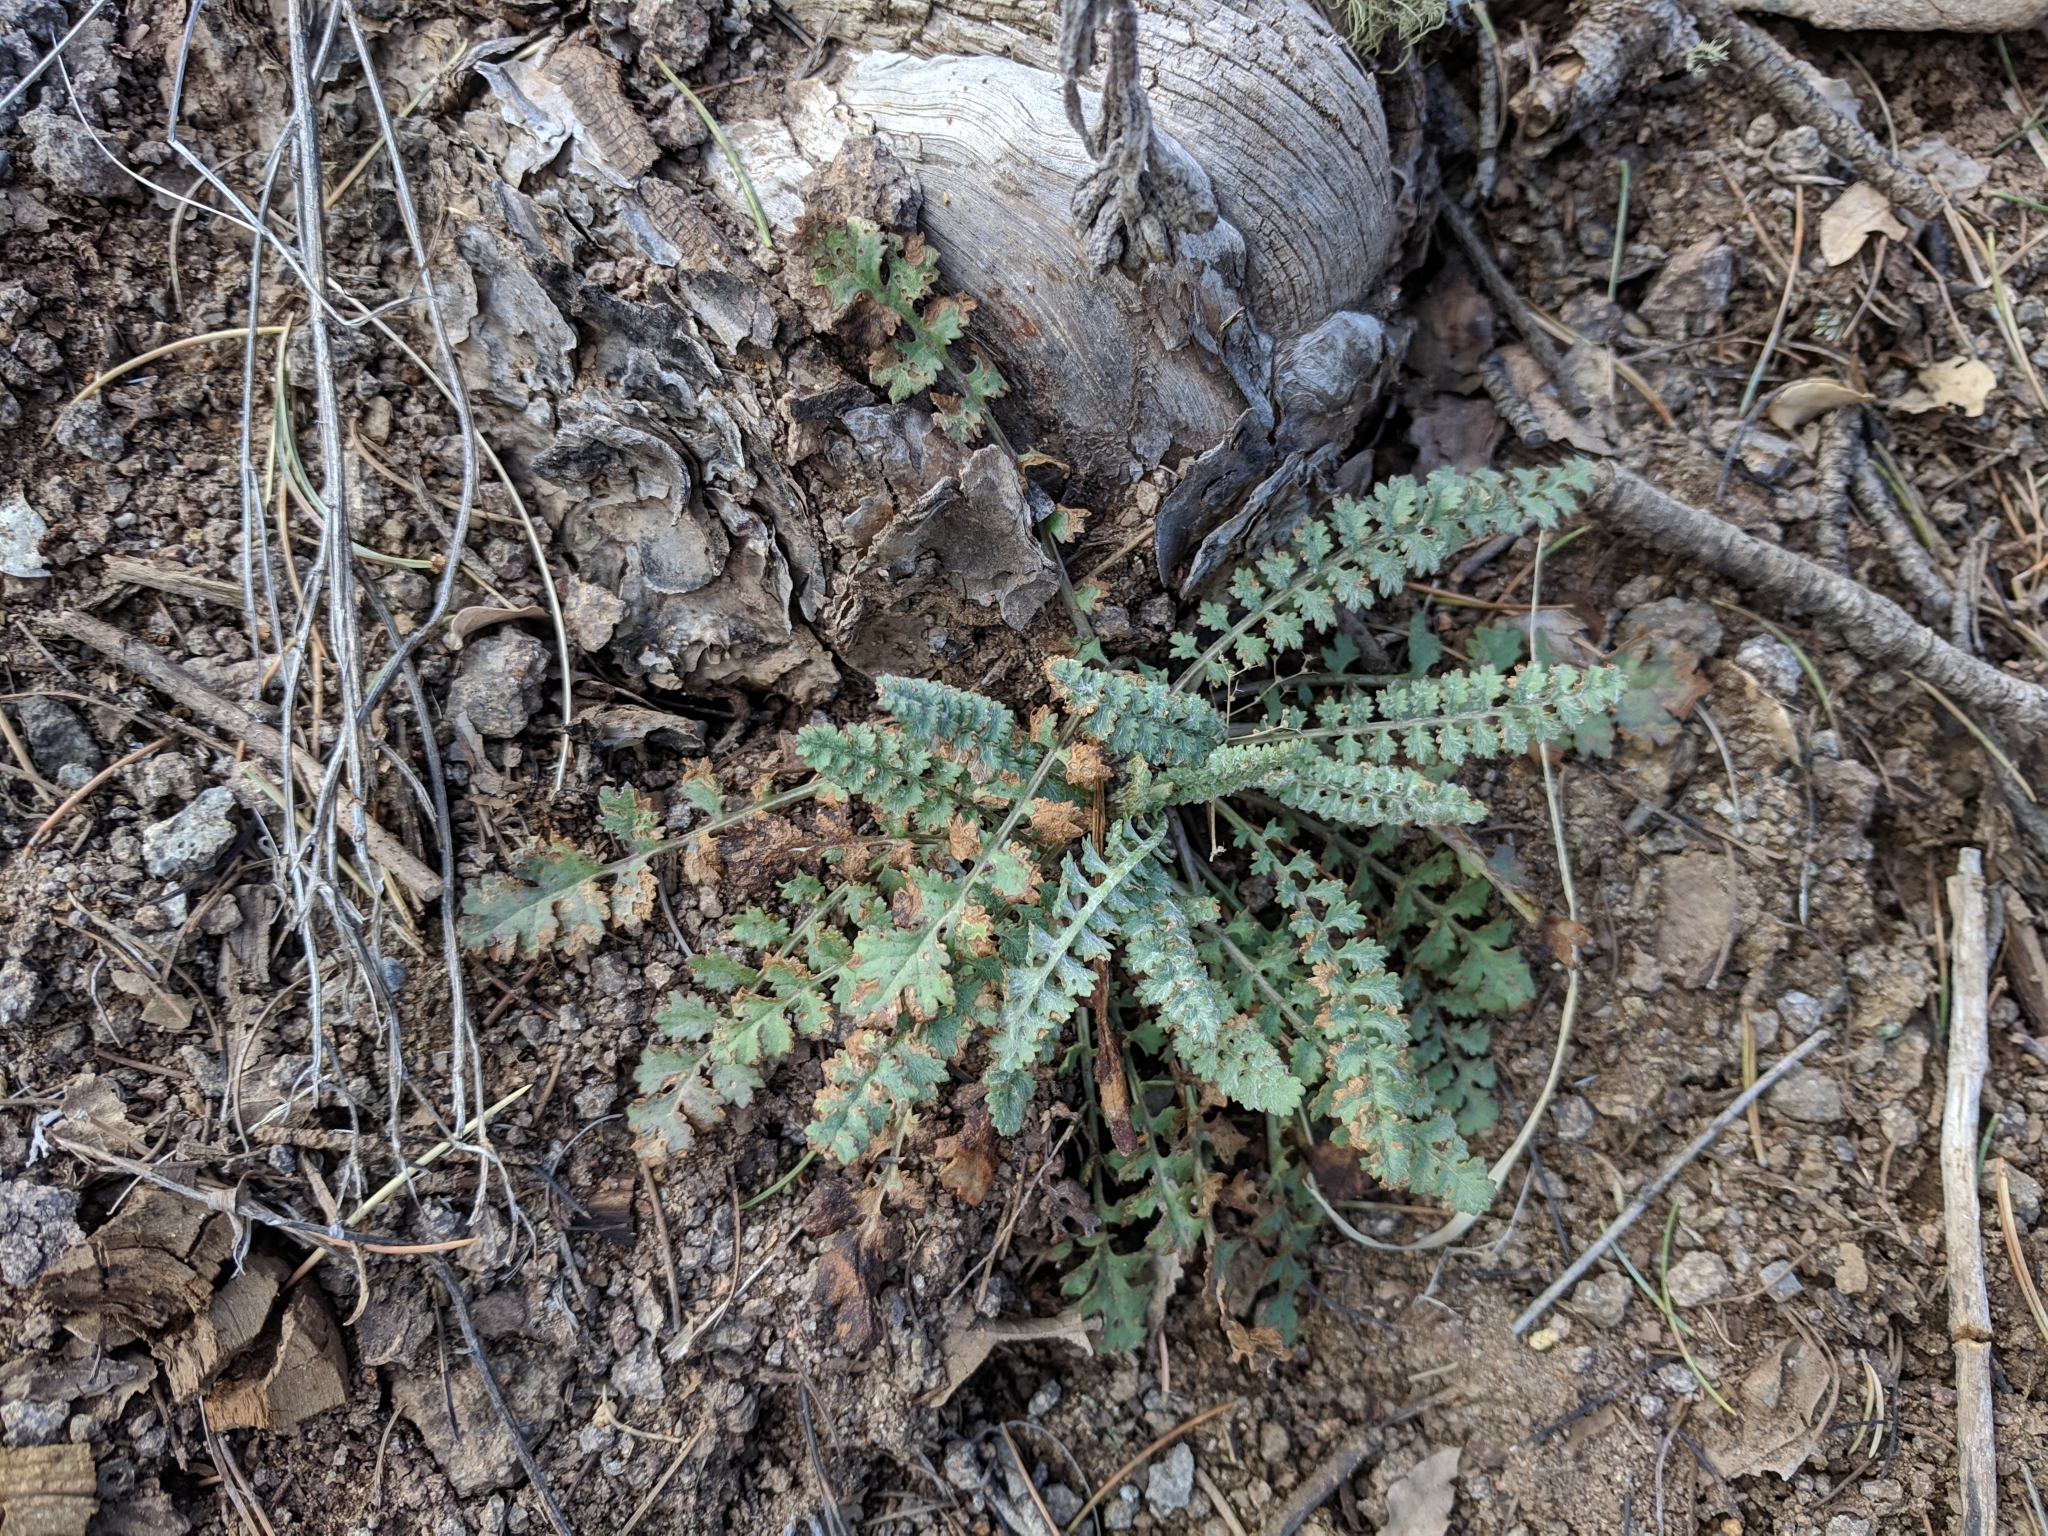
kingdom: Plantae
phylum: Tracheophyta
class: Magnoliopsida
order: Asterales
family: Asteraceae
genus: Packera
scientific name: Packera millelobata
